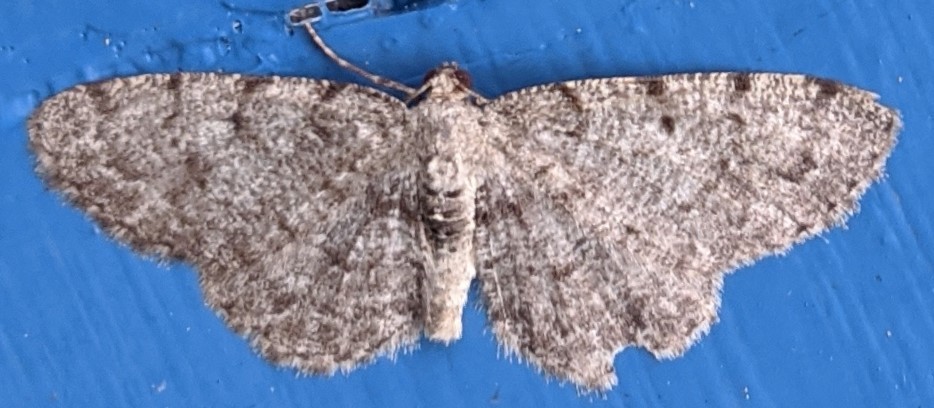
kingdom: Animalia
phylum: Arthropoda
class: Insecta
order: Lepidoptera
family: Geometridae
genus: Aethalura
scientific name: Aethalura intertexta
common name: Four-barred gray
